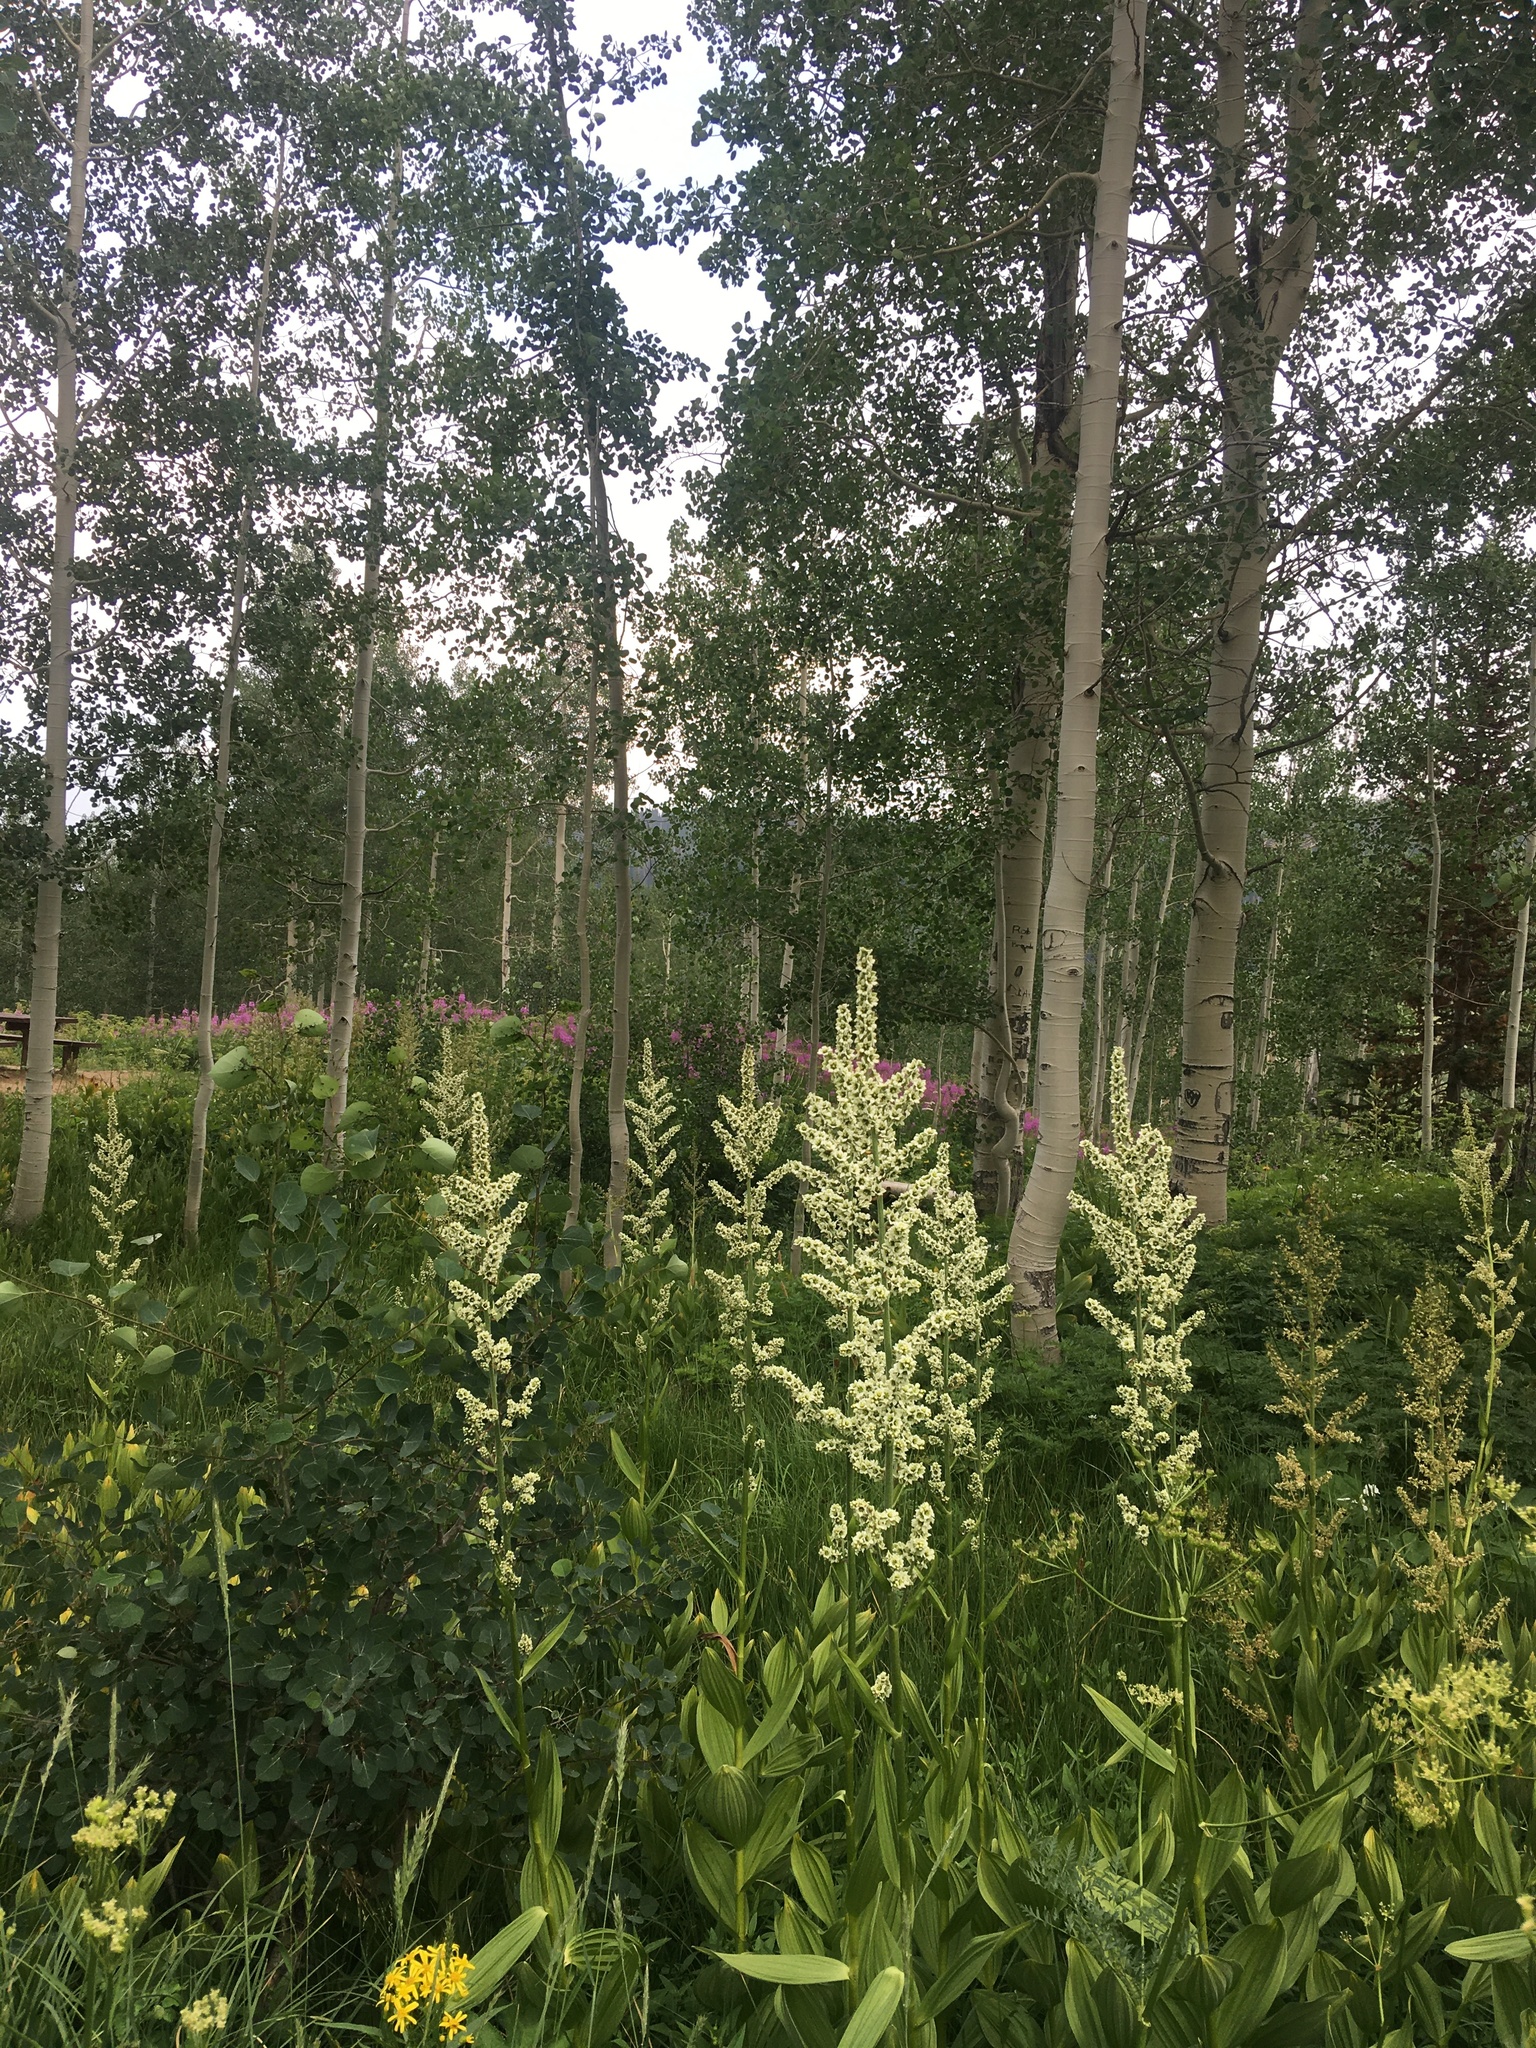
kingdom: Plantae
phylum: Tracheophyta
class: Liliopsida
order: Liliales
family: Melanthiaceae
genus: Veratrum
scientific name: Veratrum californicum
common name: California veratrum
